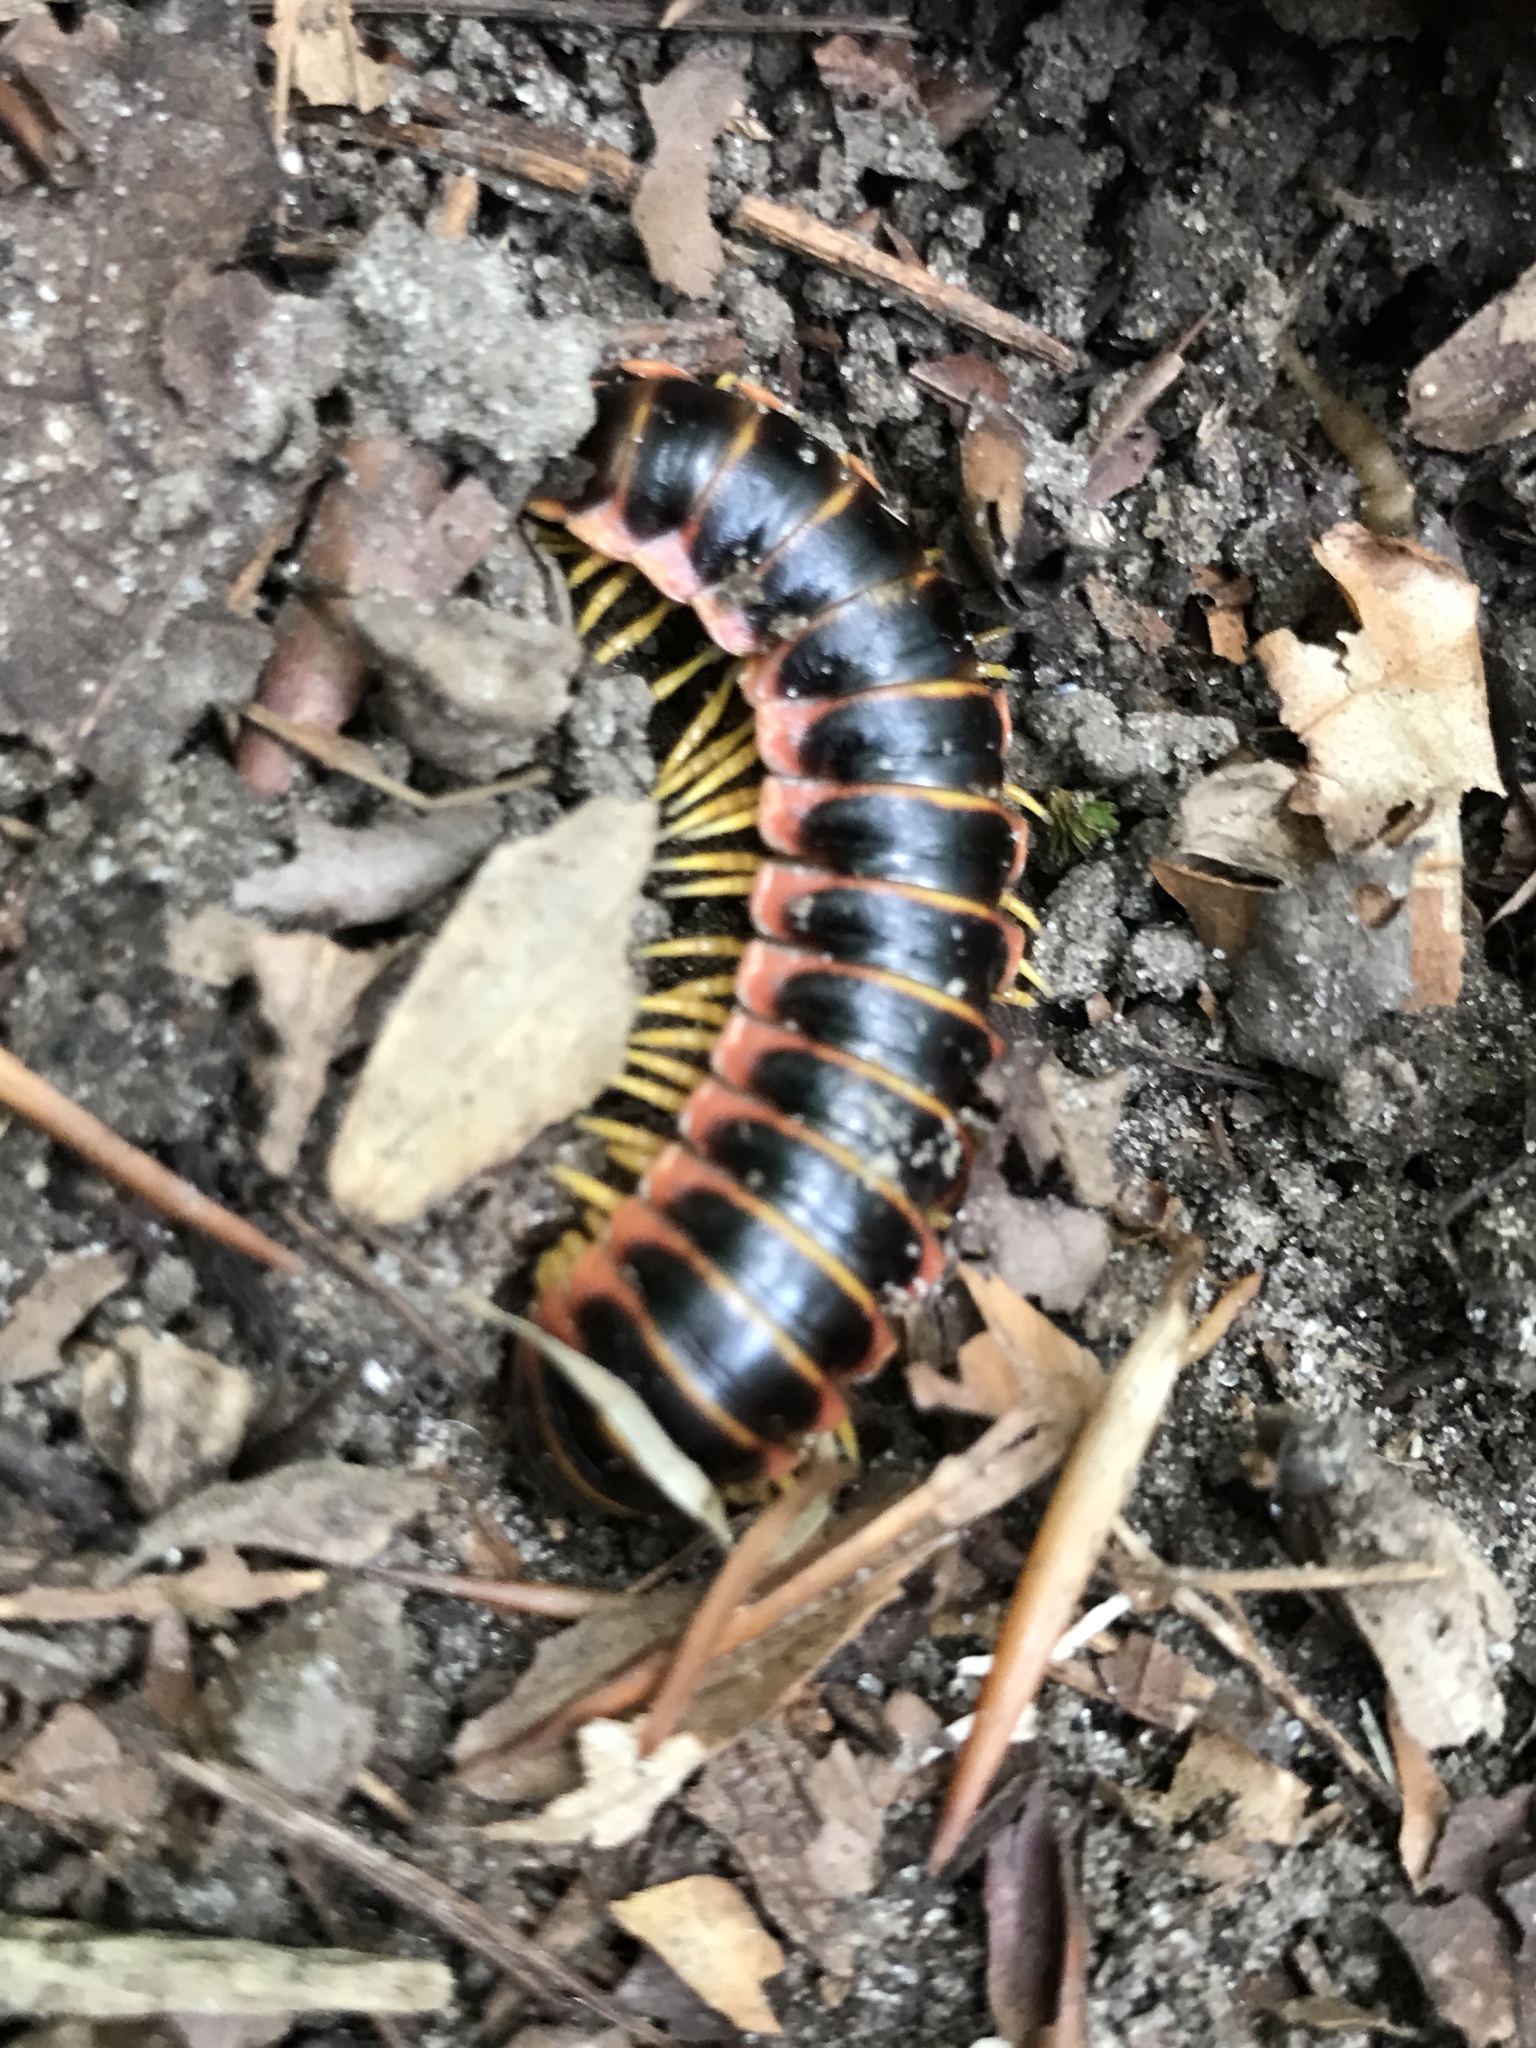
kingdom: Animalia
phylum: Arthropoda
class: Diplopoda
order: Polydesmida
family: Xystodesmidae
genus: Apheloria
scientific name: Apheloria virginiensis
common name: Black-and-gold flat millipede
